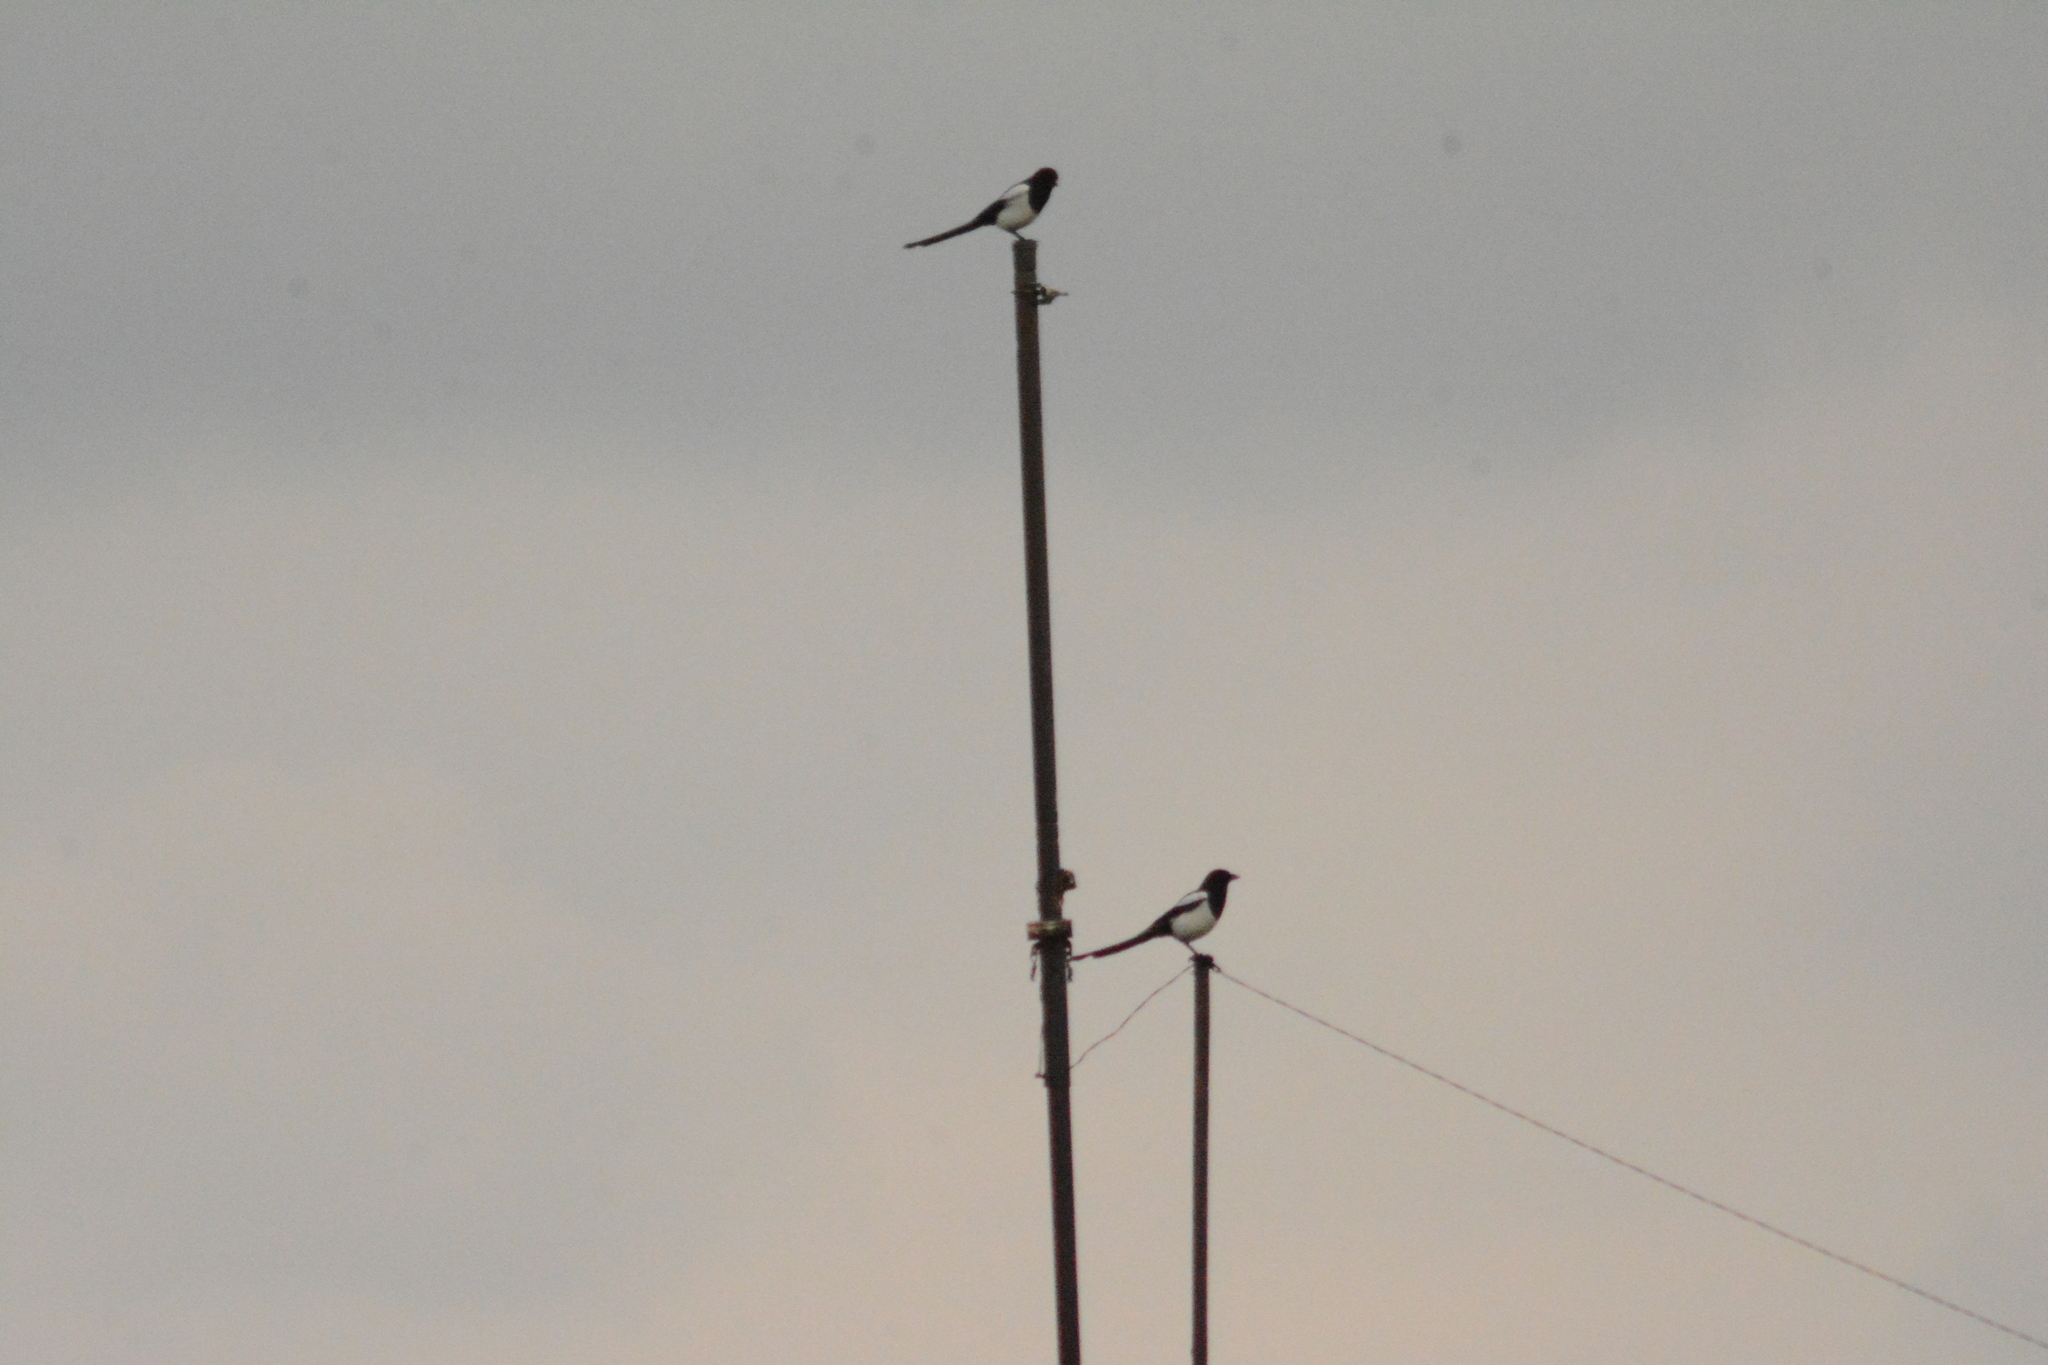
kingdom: Animalia
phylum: Chordata
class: Aves
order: Passeriformes
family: Corvidae
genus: Pica
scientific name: Pica pica
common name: Eurasian magpie
